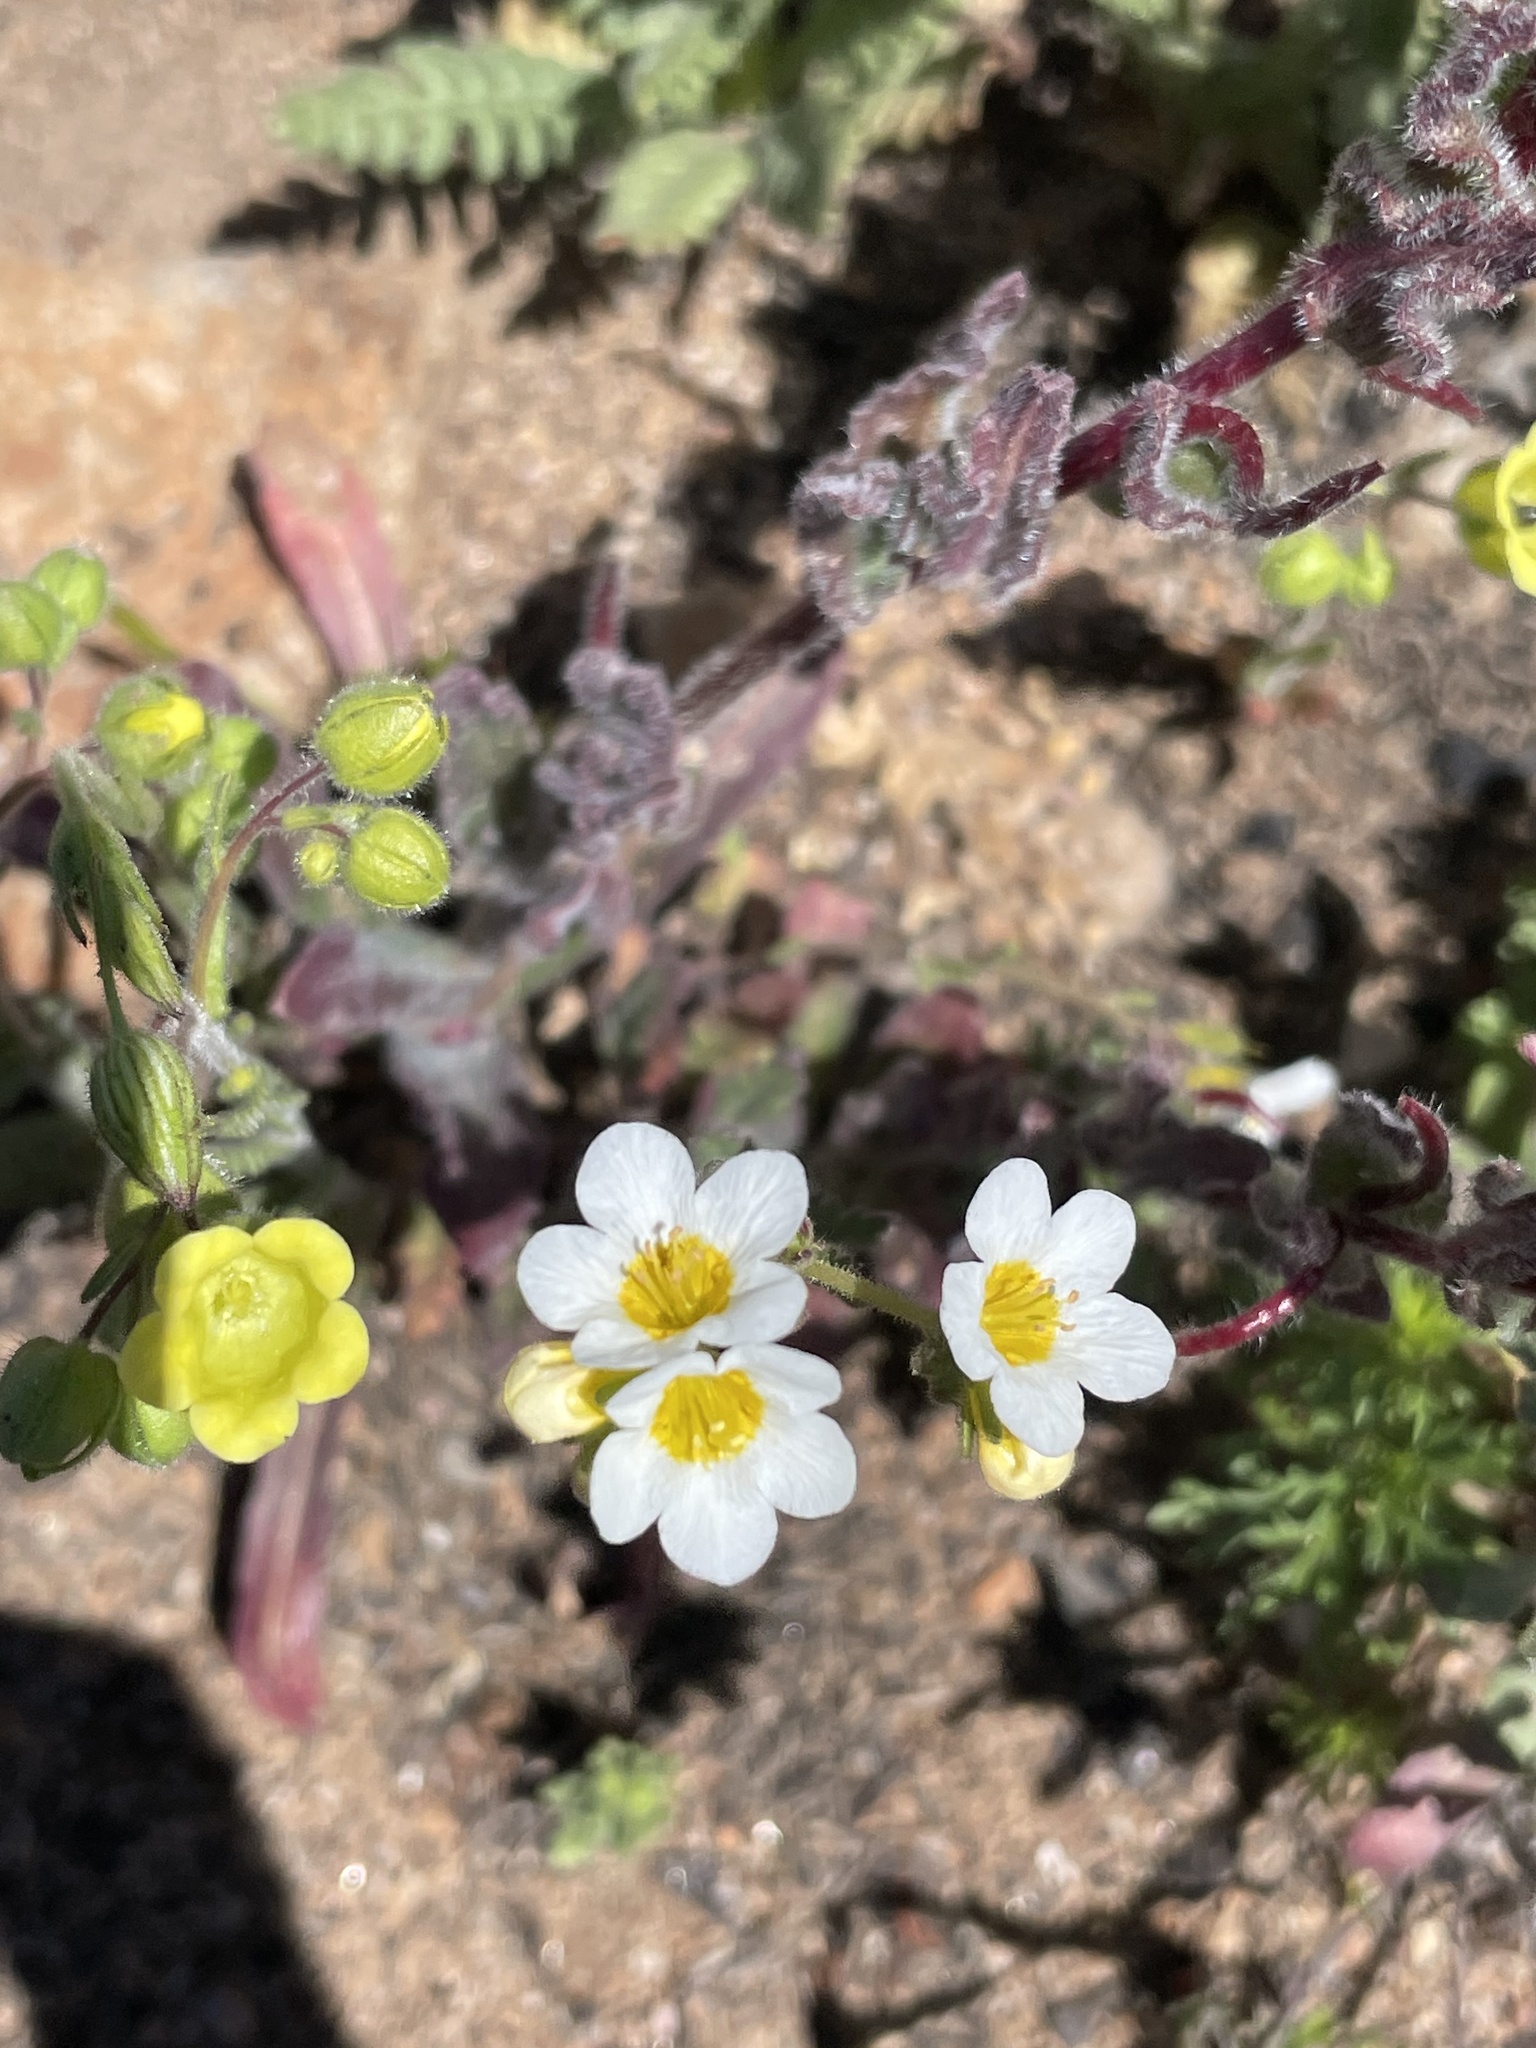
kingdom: Plantae
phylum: Tracheophyta
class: Magnoliopsida
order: Boraginales
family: Hydrophyllaceae
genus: Phacelia
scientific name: Phacelia brachyloba
